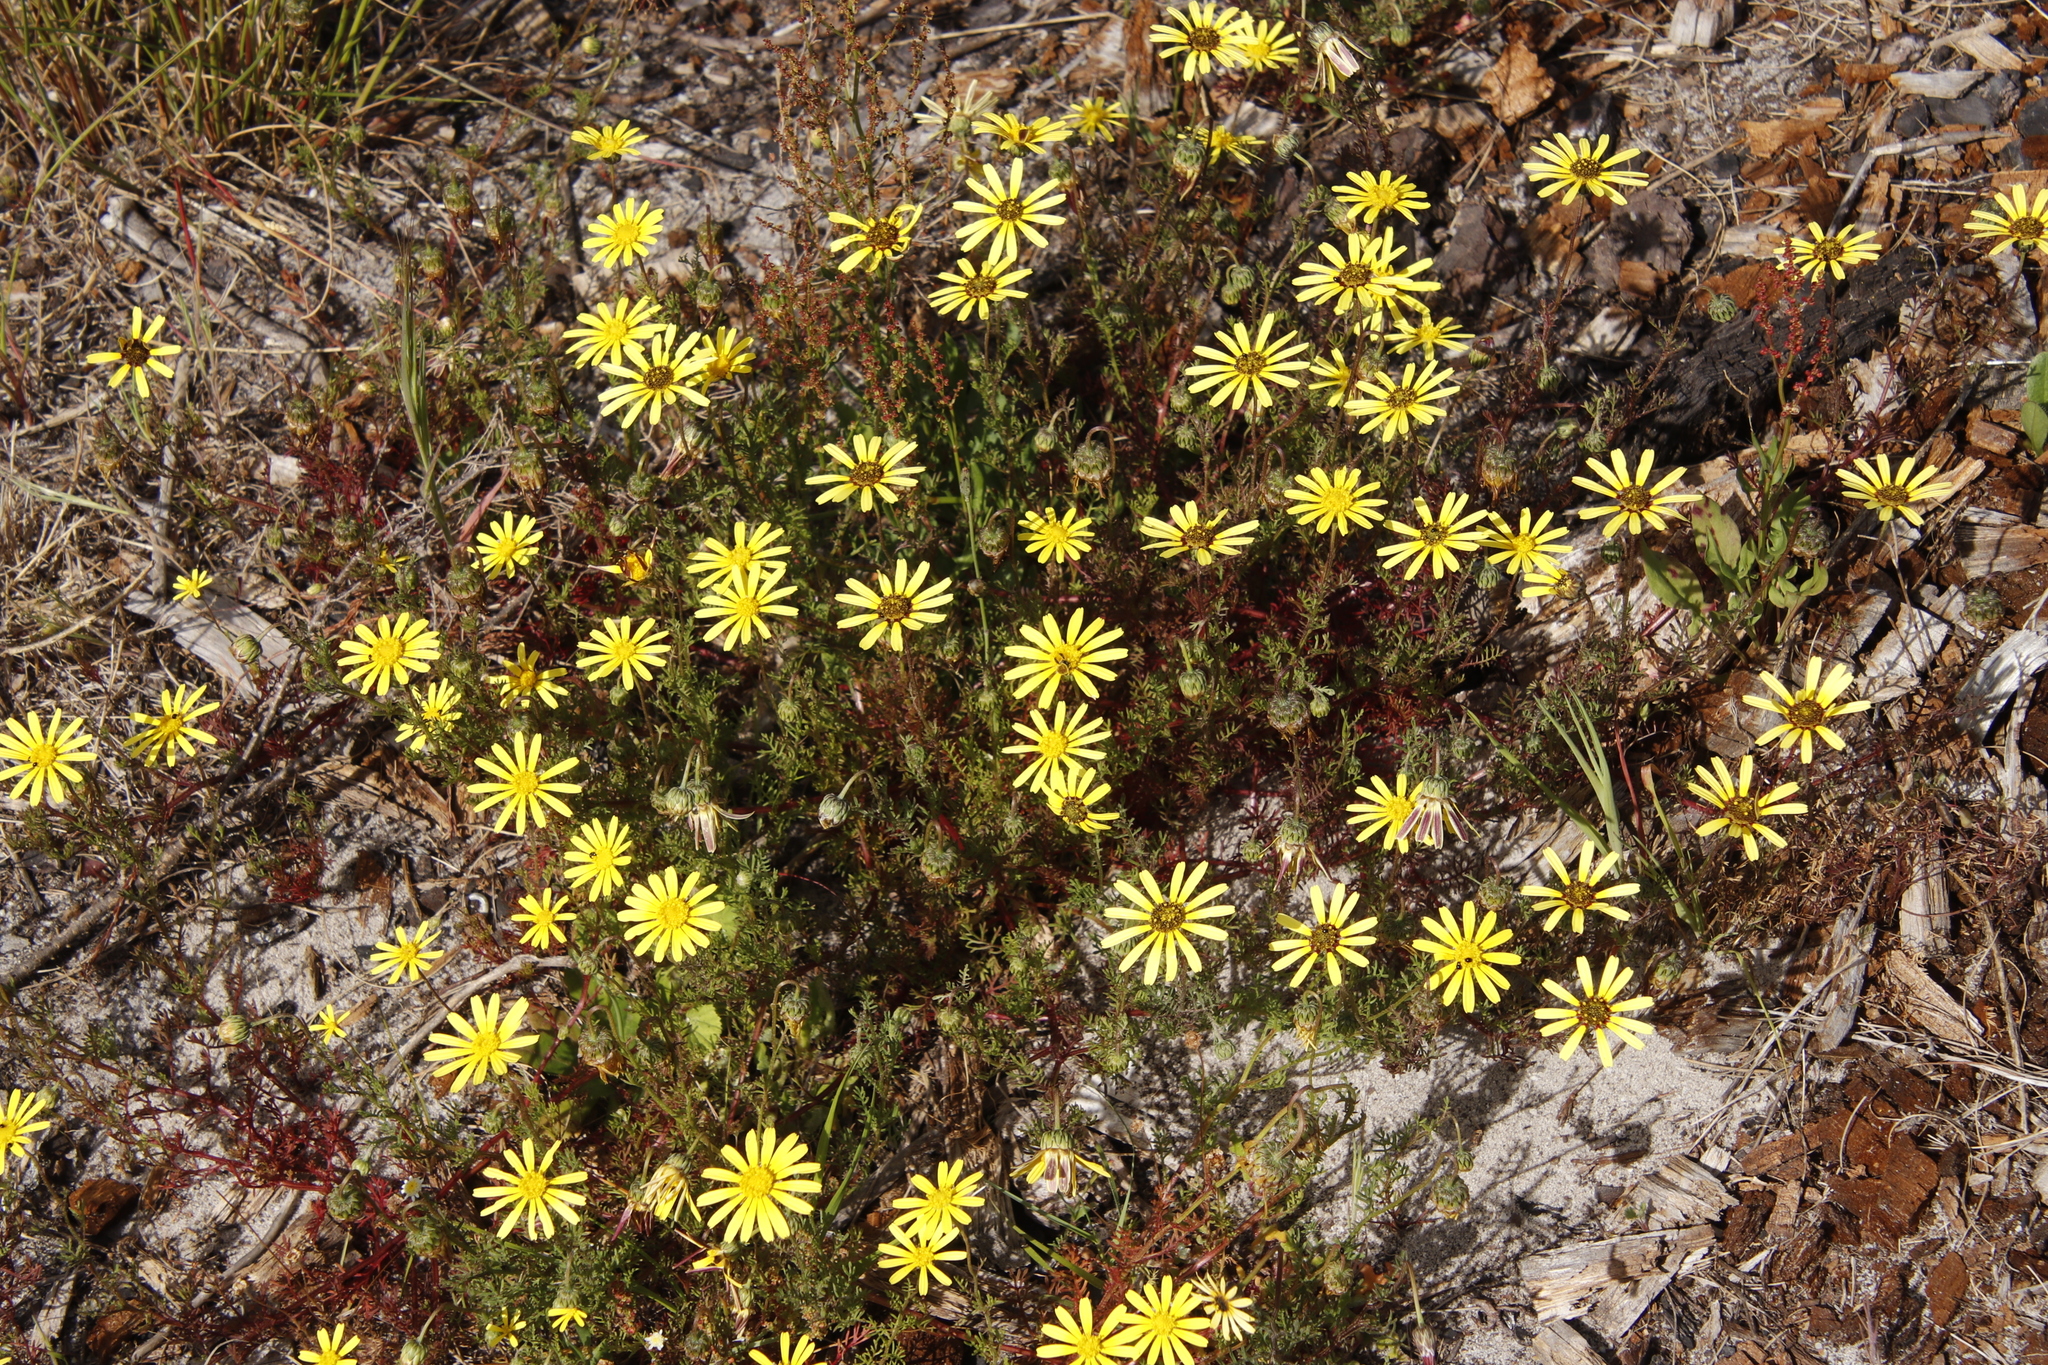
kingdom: Plantae
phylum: Tracheophyta
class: Magnoliopsida
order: Asterales
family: Asteraceae
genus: Ursinia
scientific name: Ursinia anthemoides
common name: Ursinia
